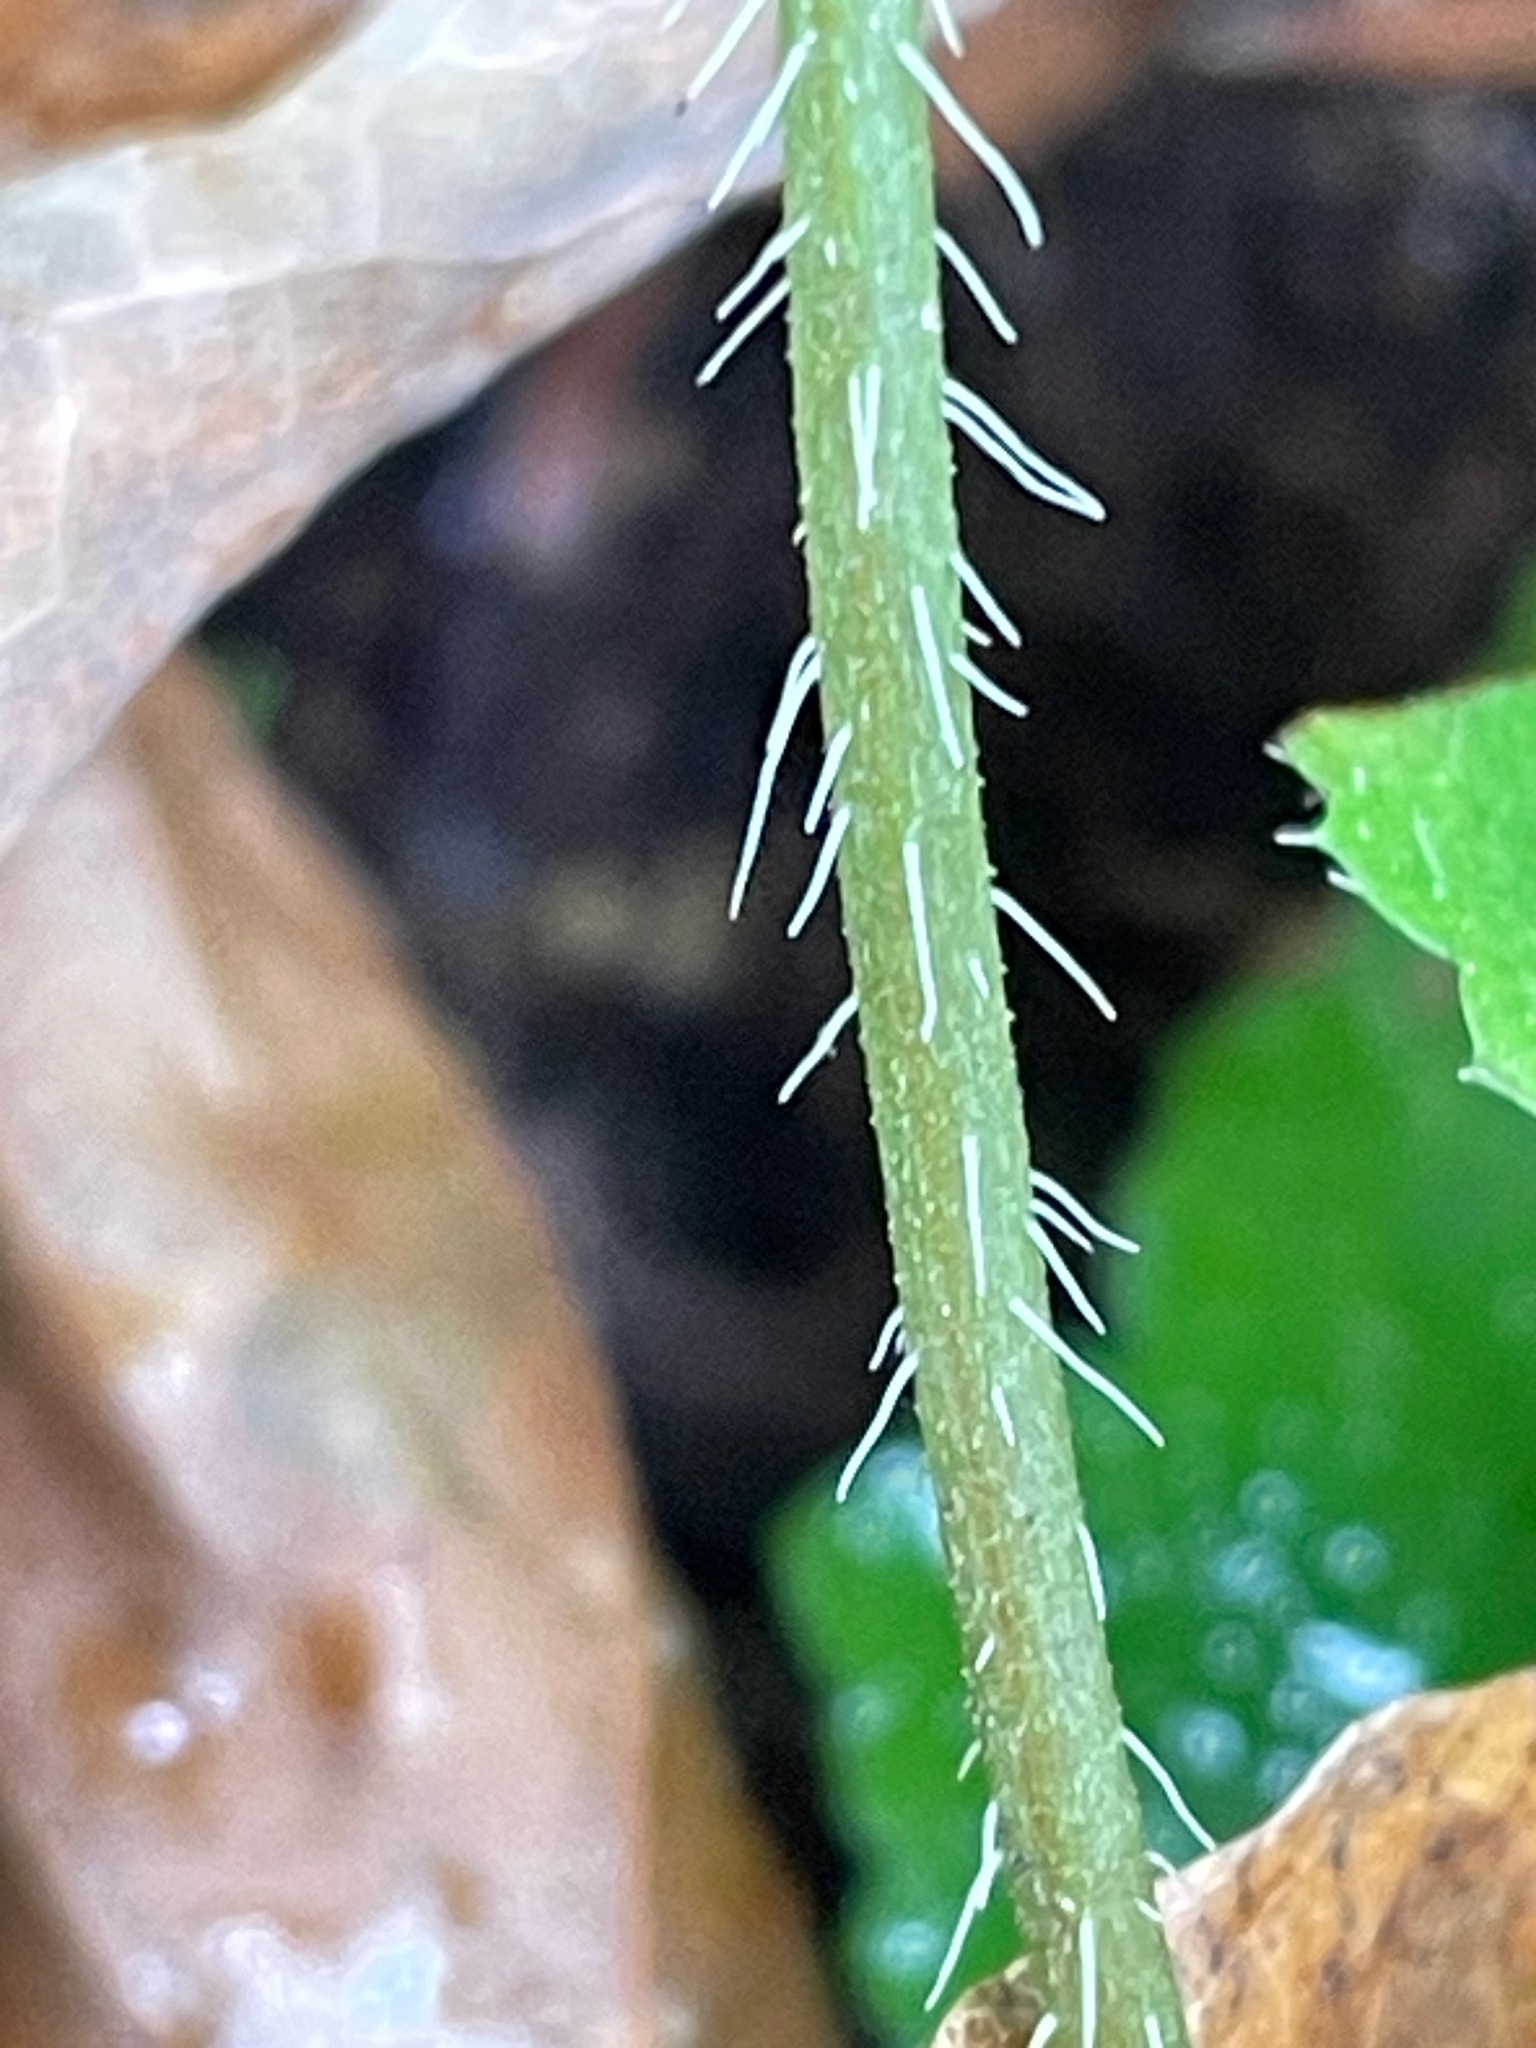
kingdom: Plantae
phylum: Tracheophyta
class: Magnoliopsida
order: Saxifragales
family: Saxifragaceae
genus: Mitella
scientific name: Mitella diphylla
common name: Coolwort
